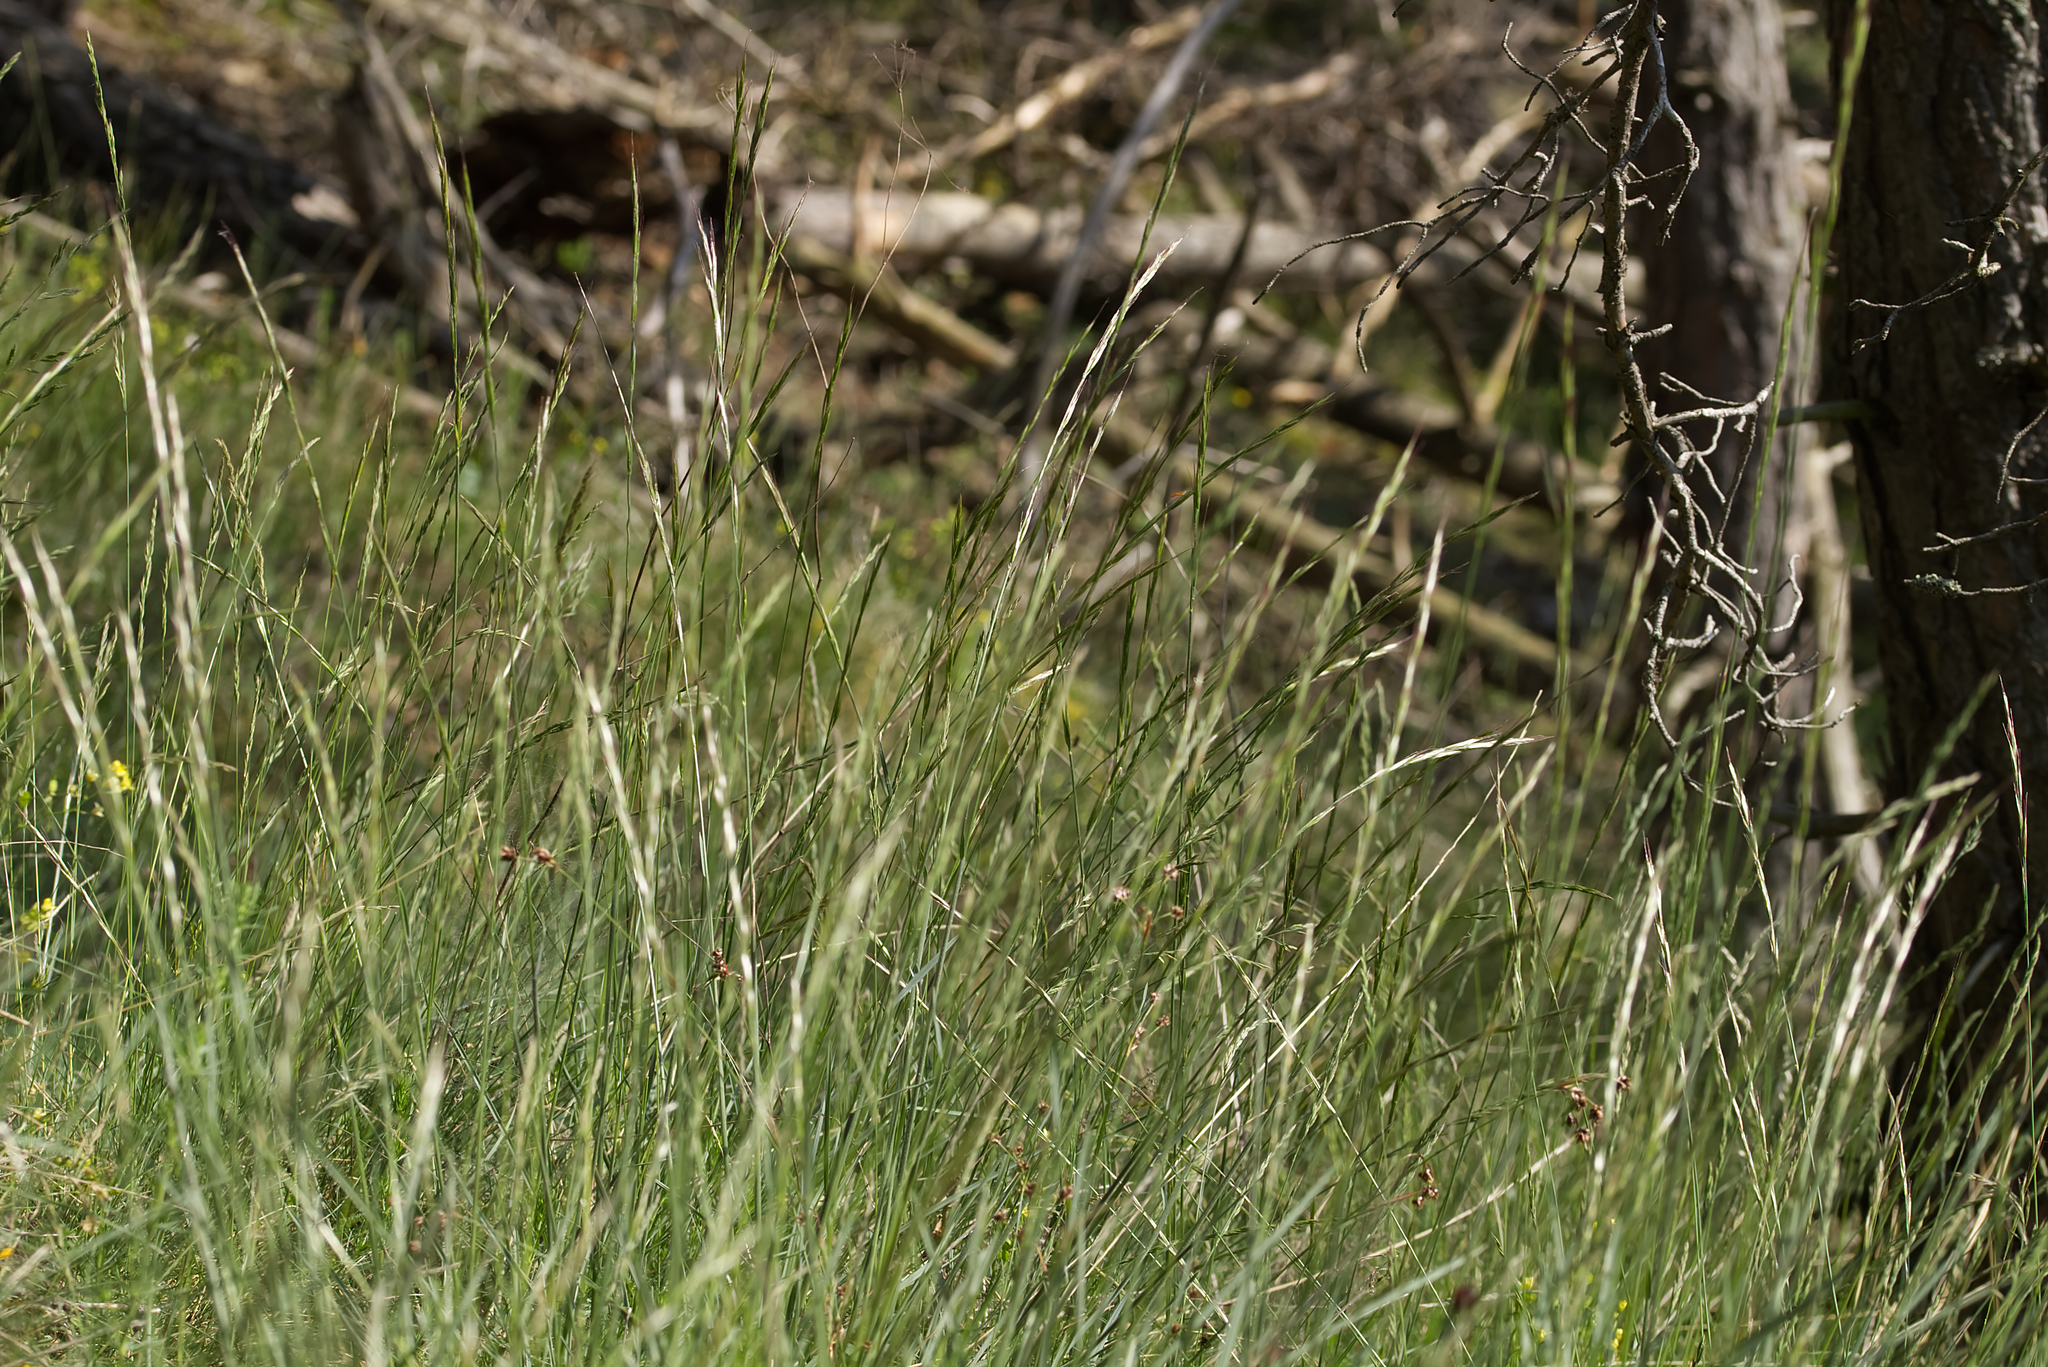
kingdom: Plantae
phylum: Tracheophyta
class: Liliopsida
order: Poales
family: Poaceae
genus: Helictochloa
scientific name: Helictochloa pratensis
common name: Meadow oat grass
